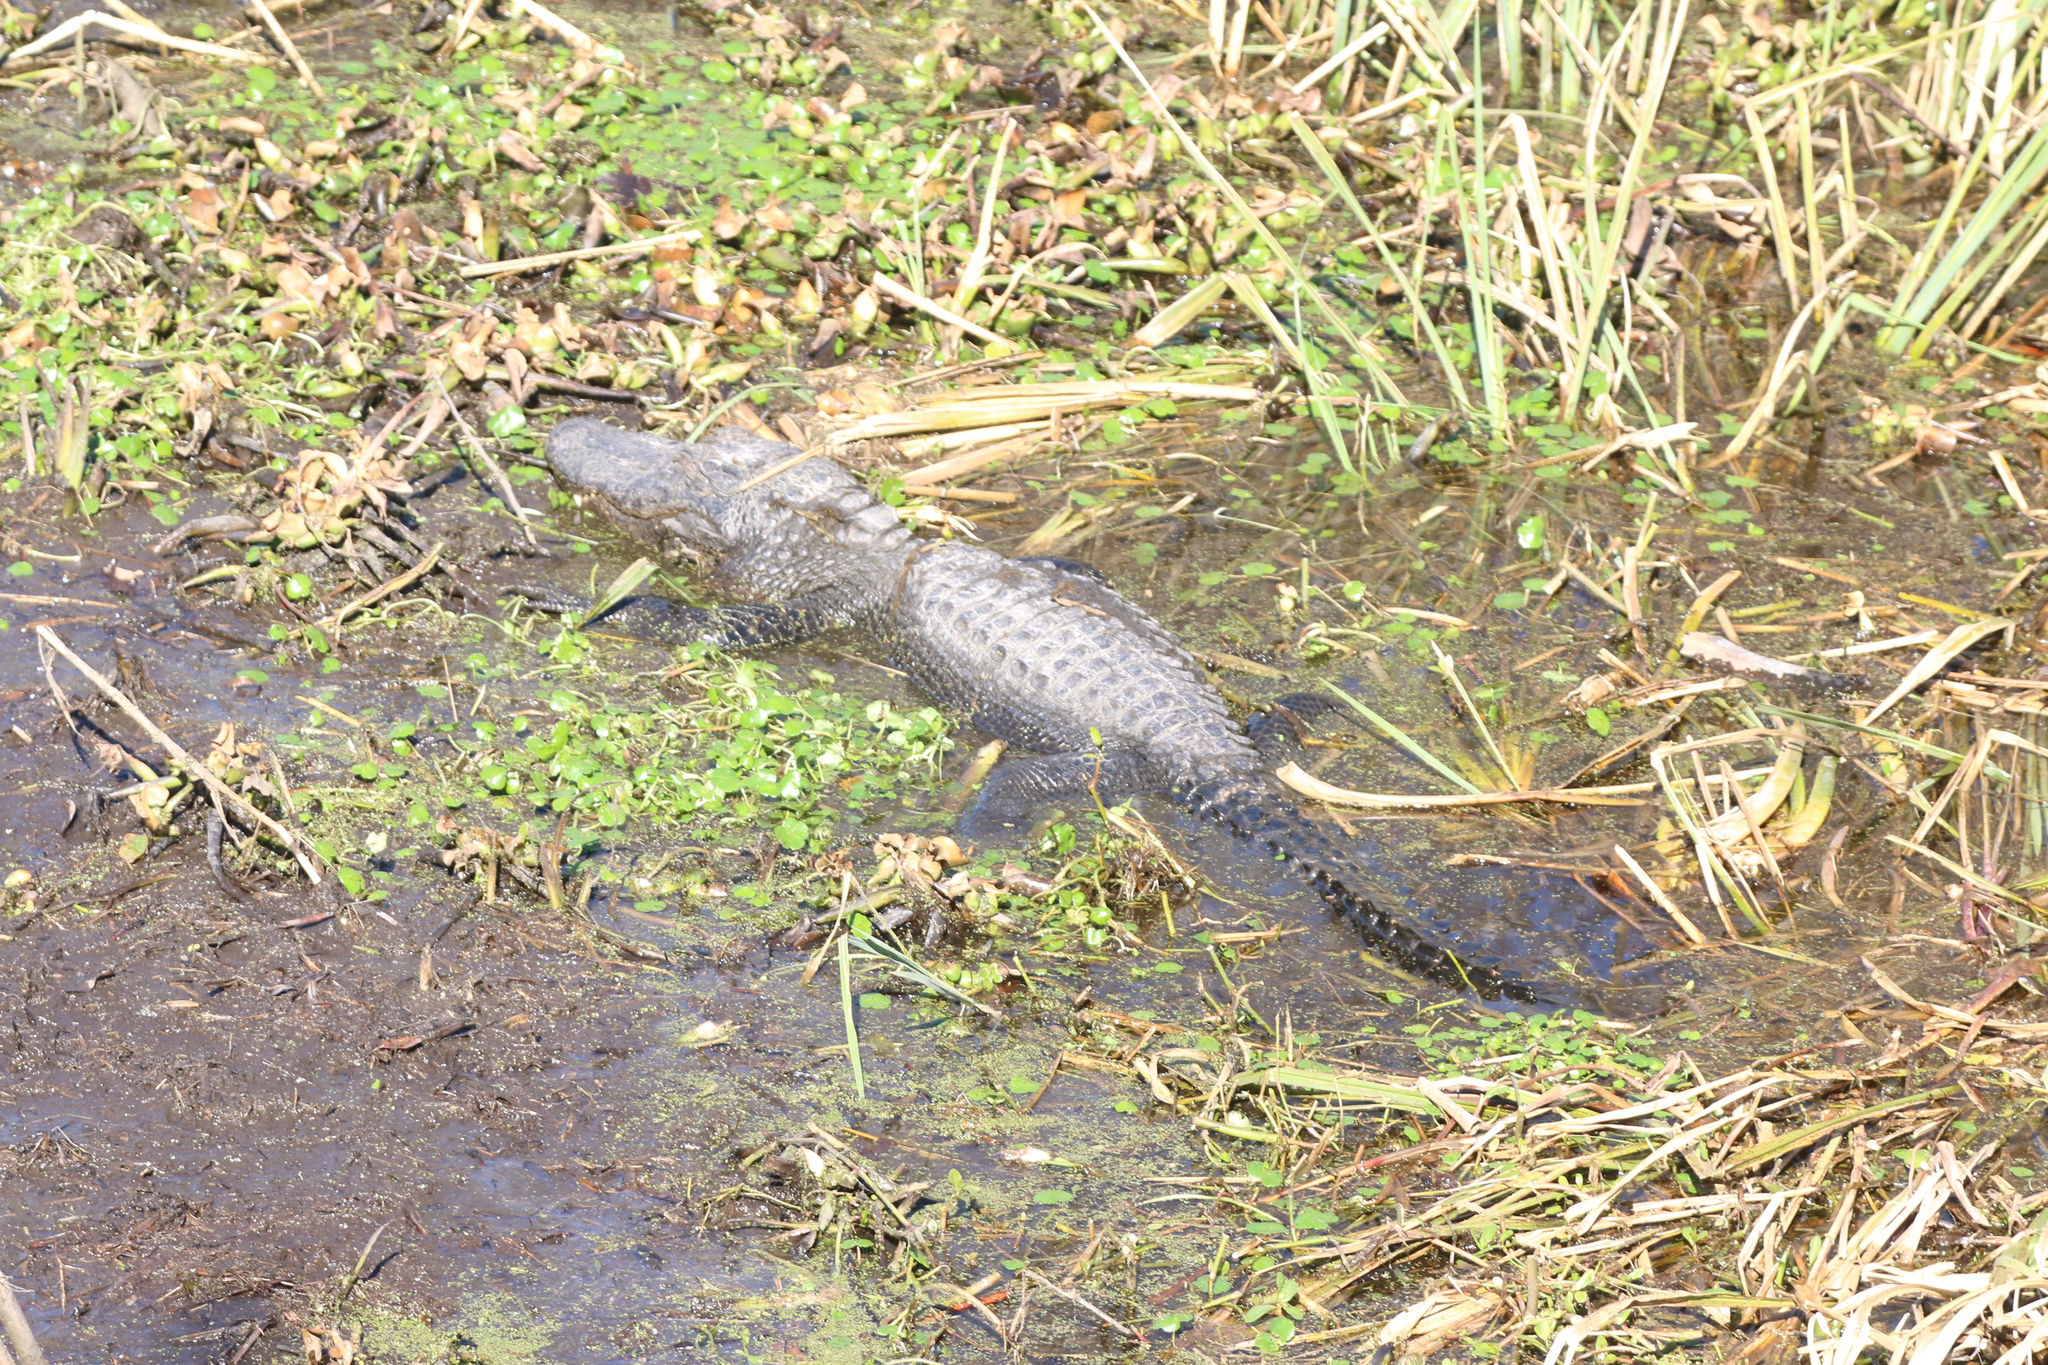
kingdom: Animalia
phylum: Chordata
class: Crocodylia
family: Alligatoridae
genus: Alligator
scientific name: Alligator mississippiensis
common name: American alligator
